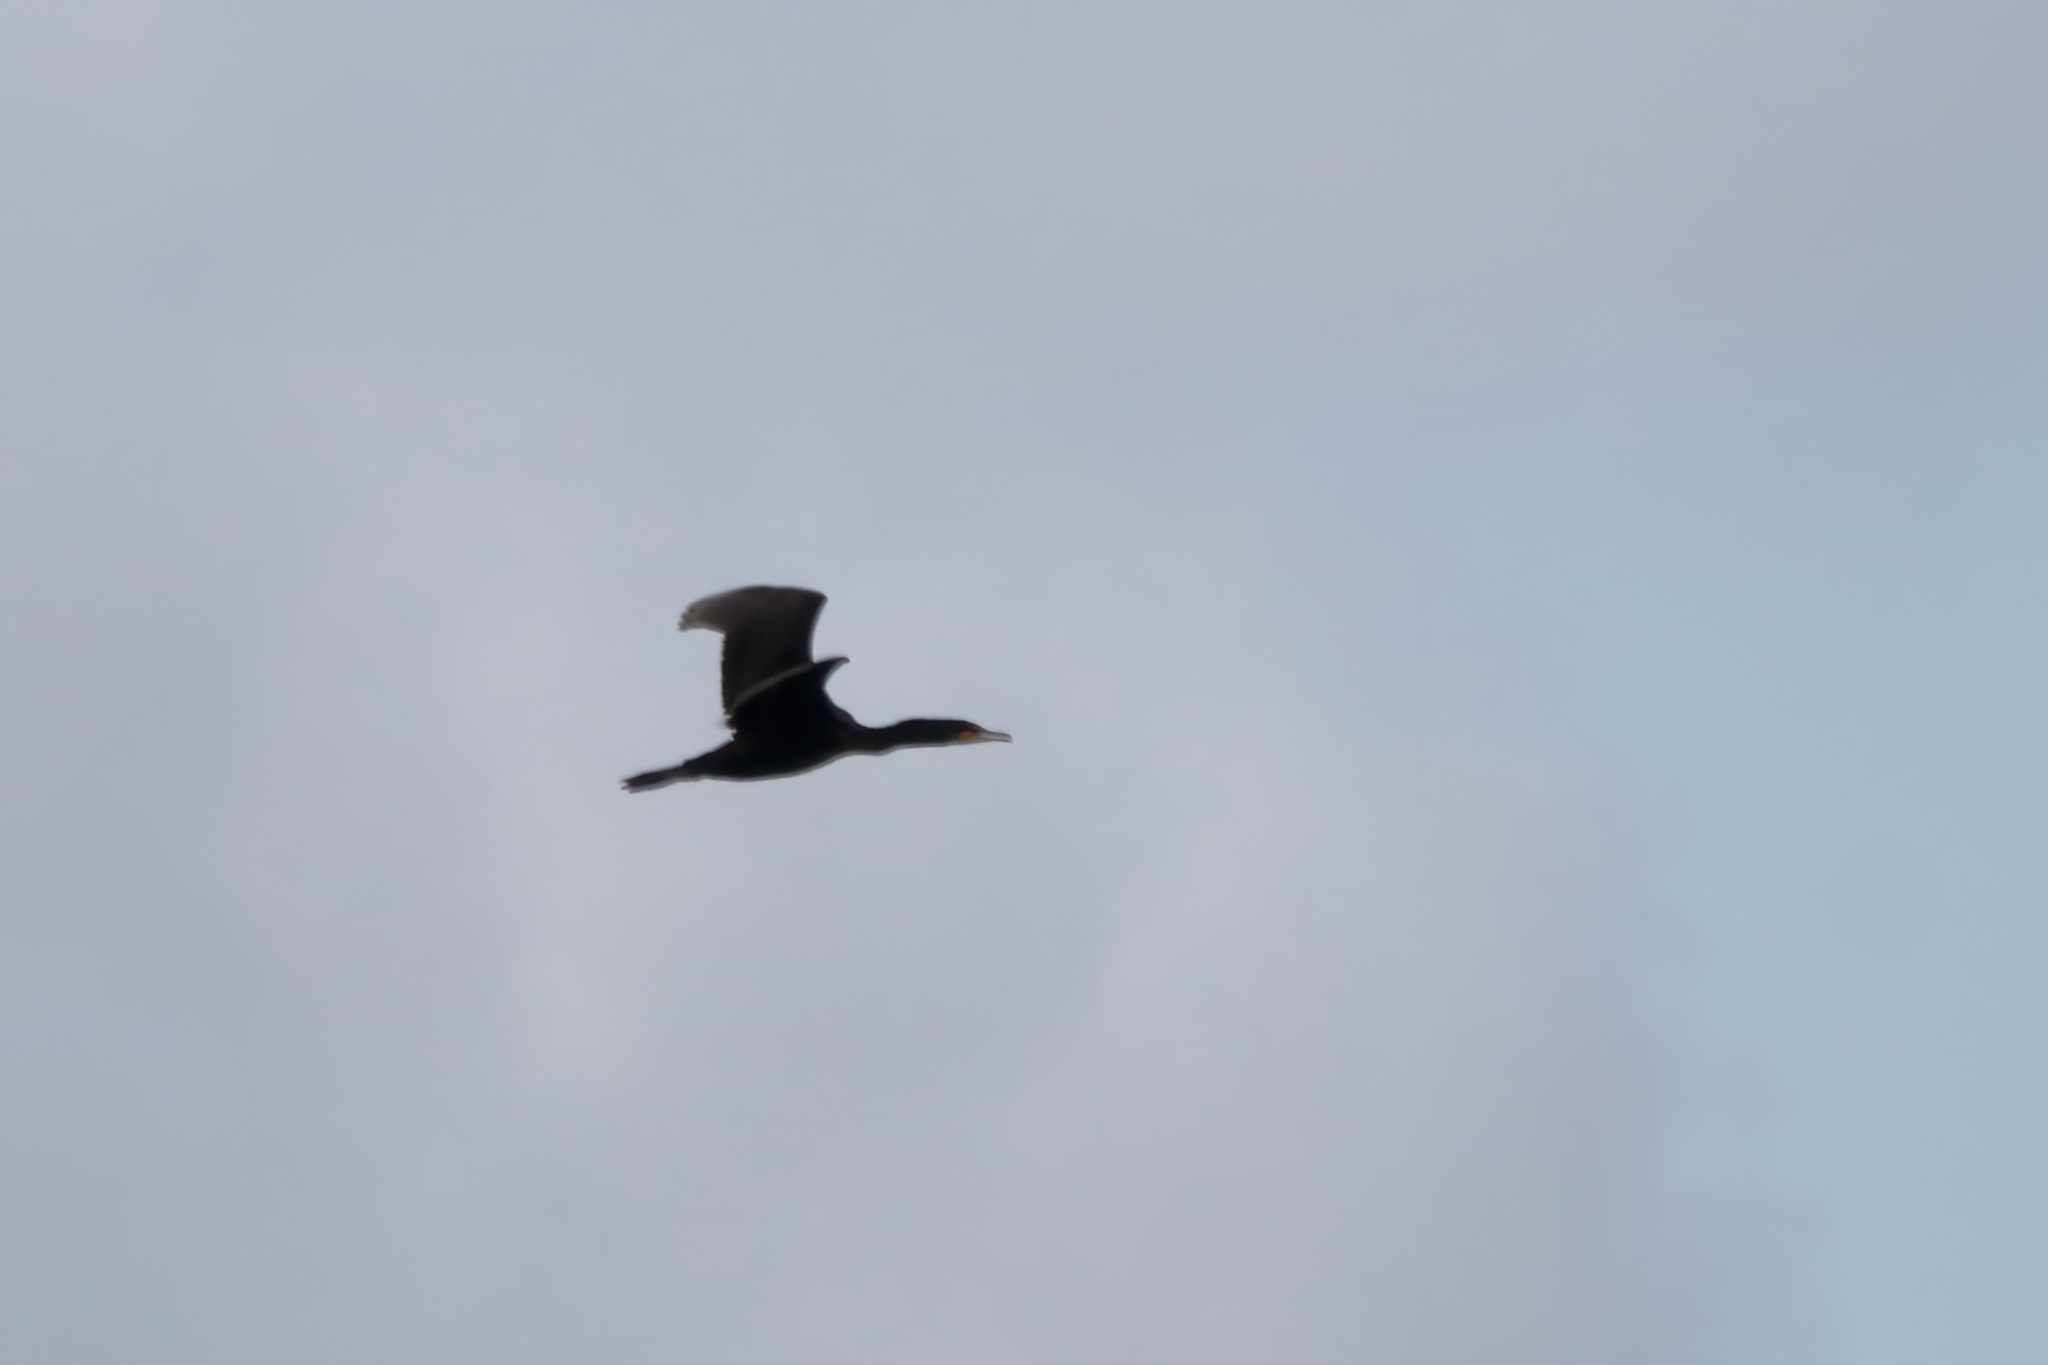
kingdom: Animalia
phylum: Chordata
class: Aves
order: Suliformes
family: Phalacrocoracidae
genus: Phalacrocorax
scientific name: Phalacrocorax auritus
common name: Double-crested cormorant
